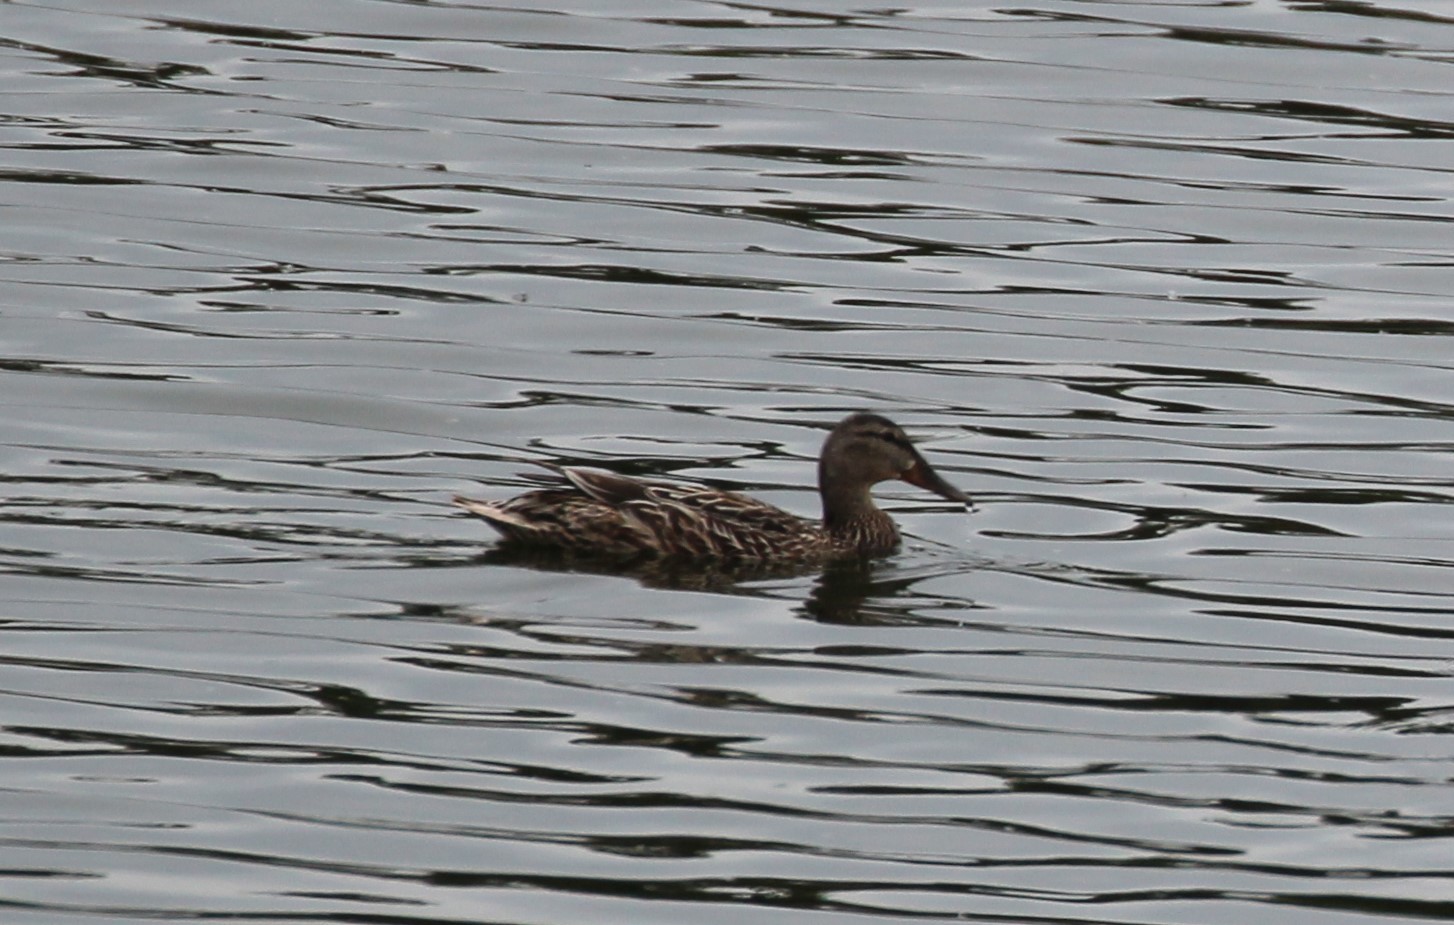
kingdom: Animalia
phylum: Chordata
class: Aves
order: Anseriformes
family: Anatidae
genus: Anas
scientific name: Anas platyrhynchos
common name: Mallard
